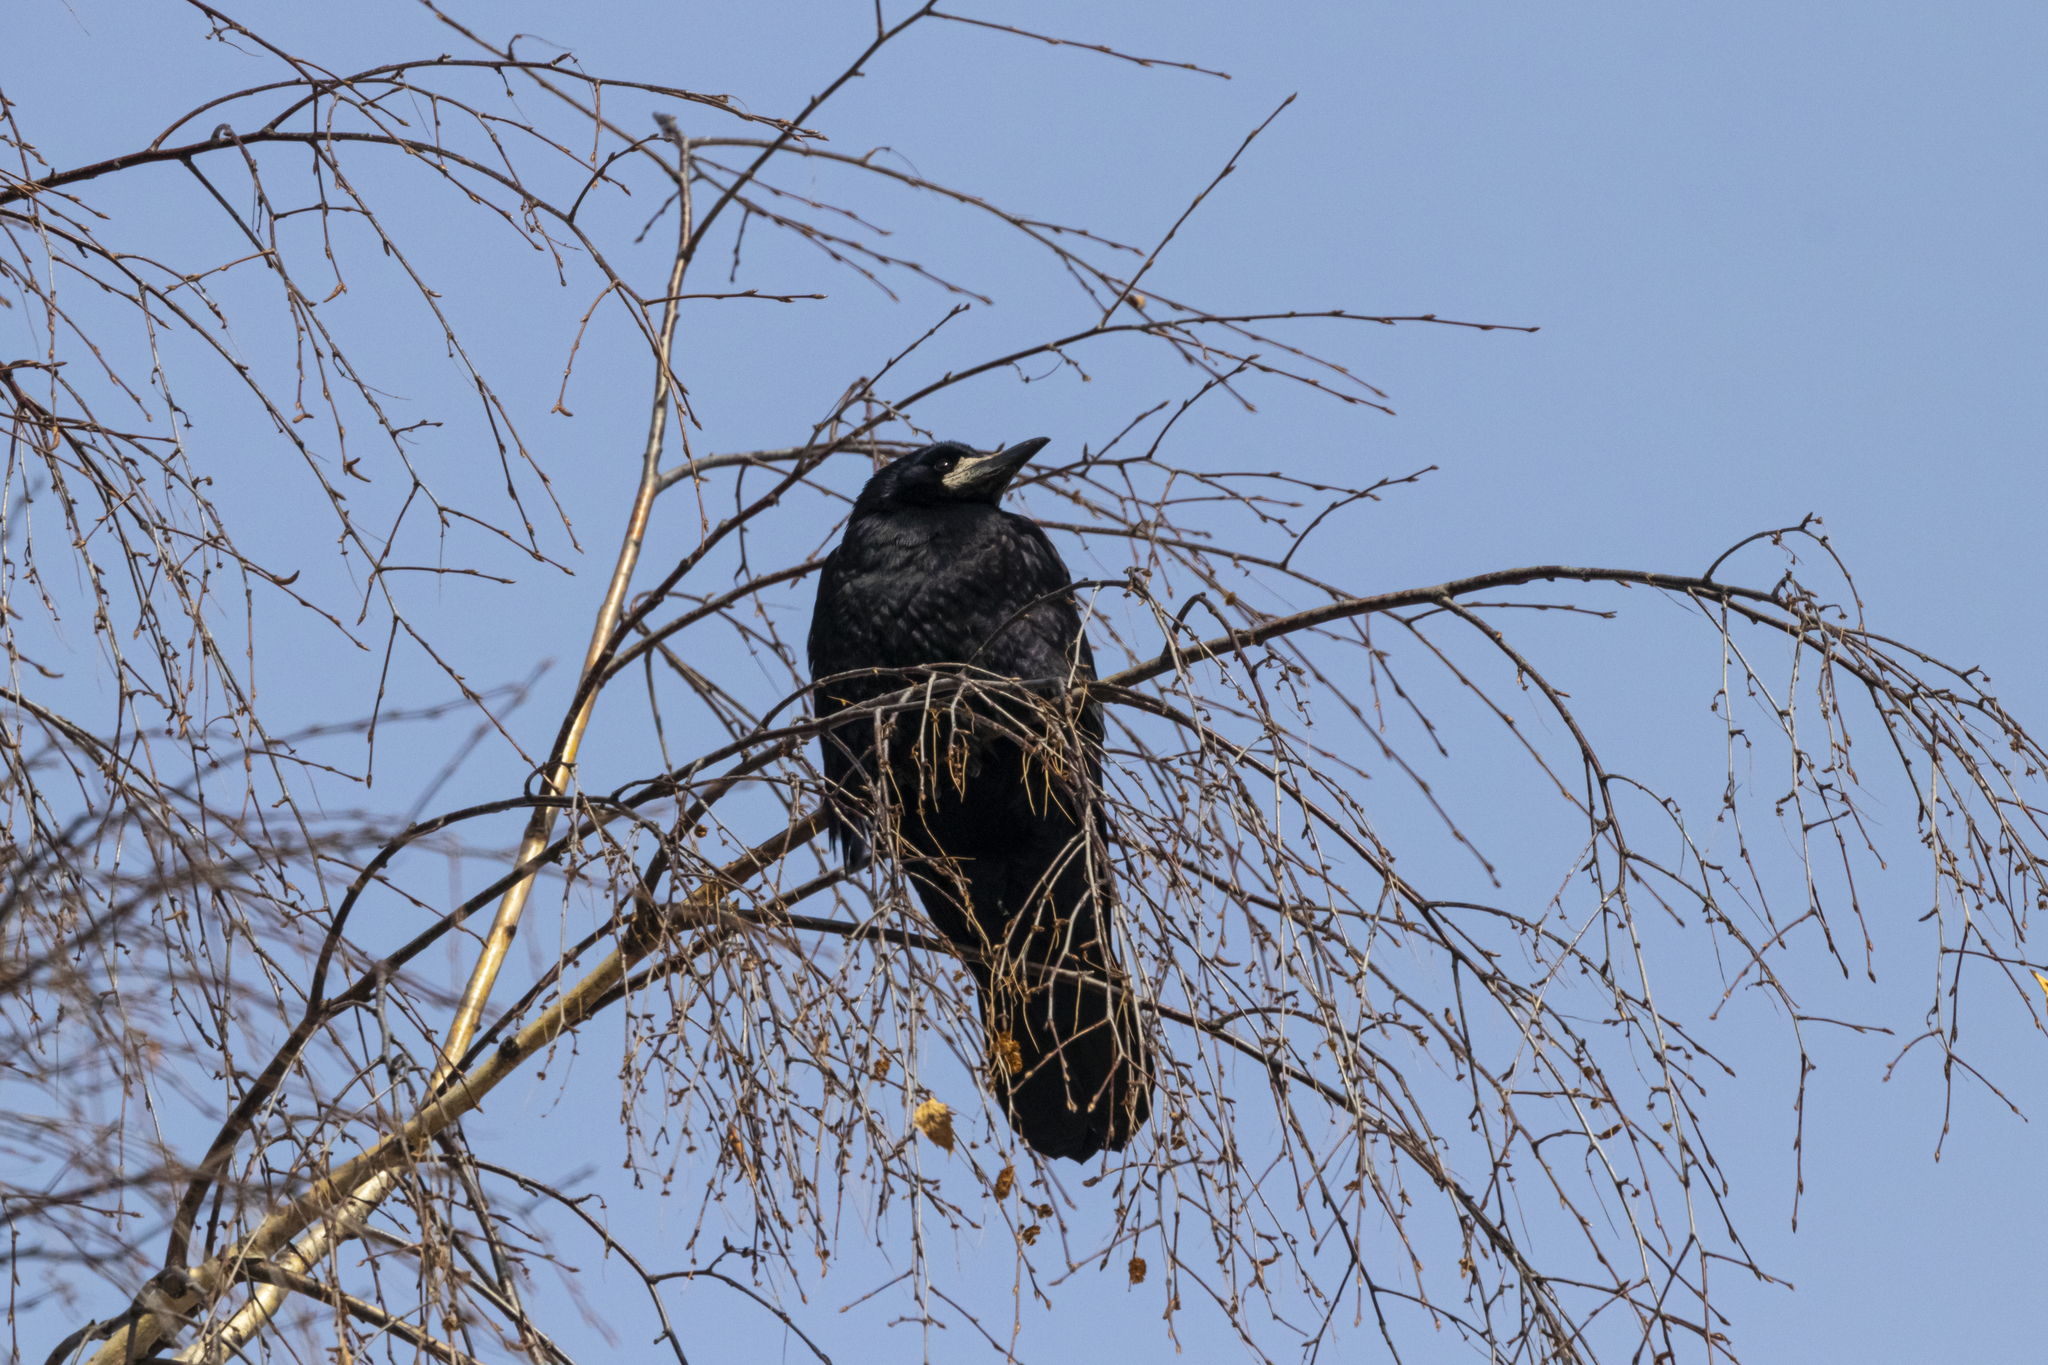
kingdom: Animalia
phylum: Chordata
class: Aves
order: Passeriformes
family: Corvidae
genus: Corvus
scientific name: Corvus frugilegus
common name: Rook
